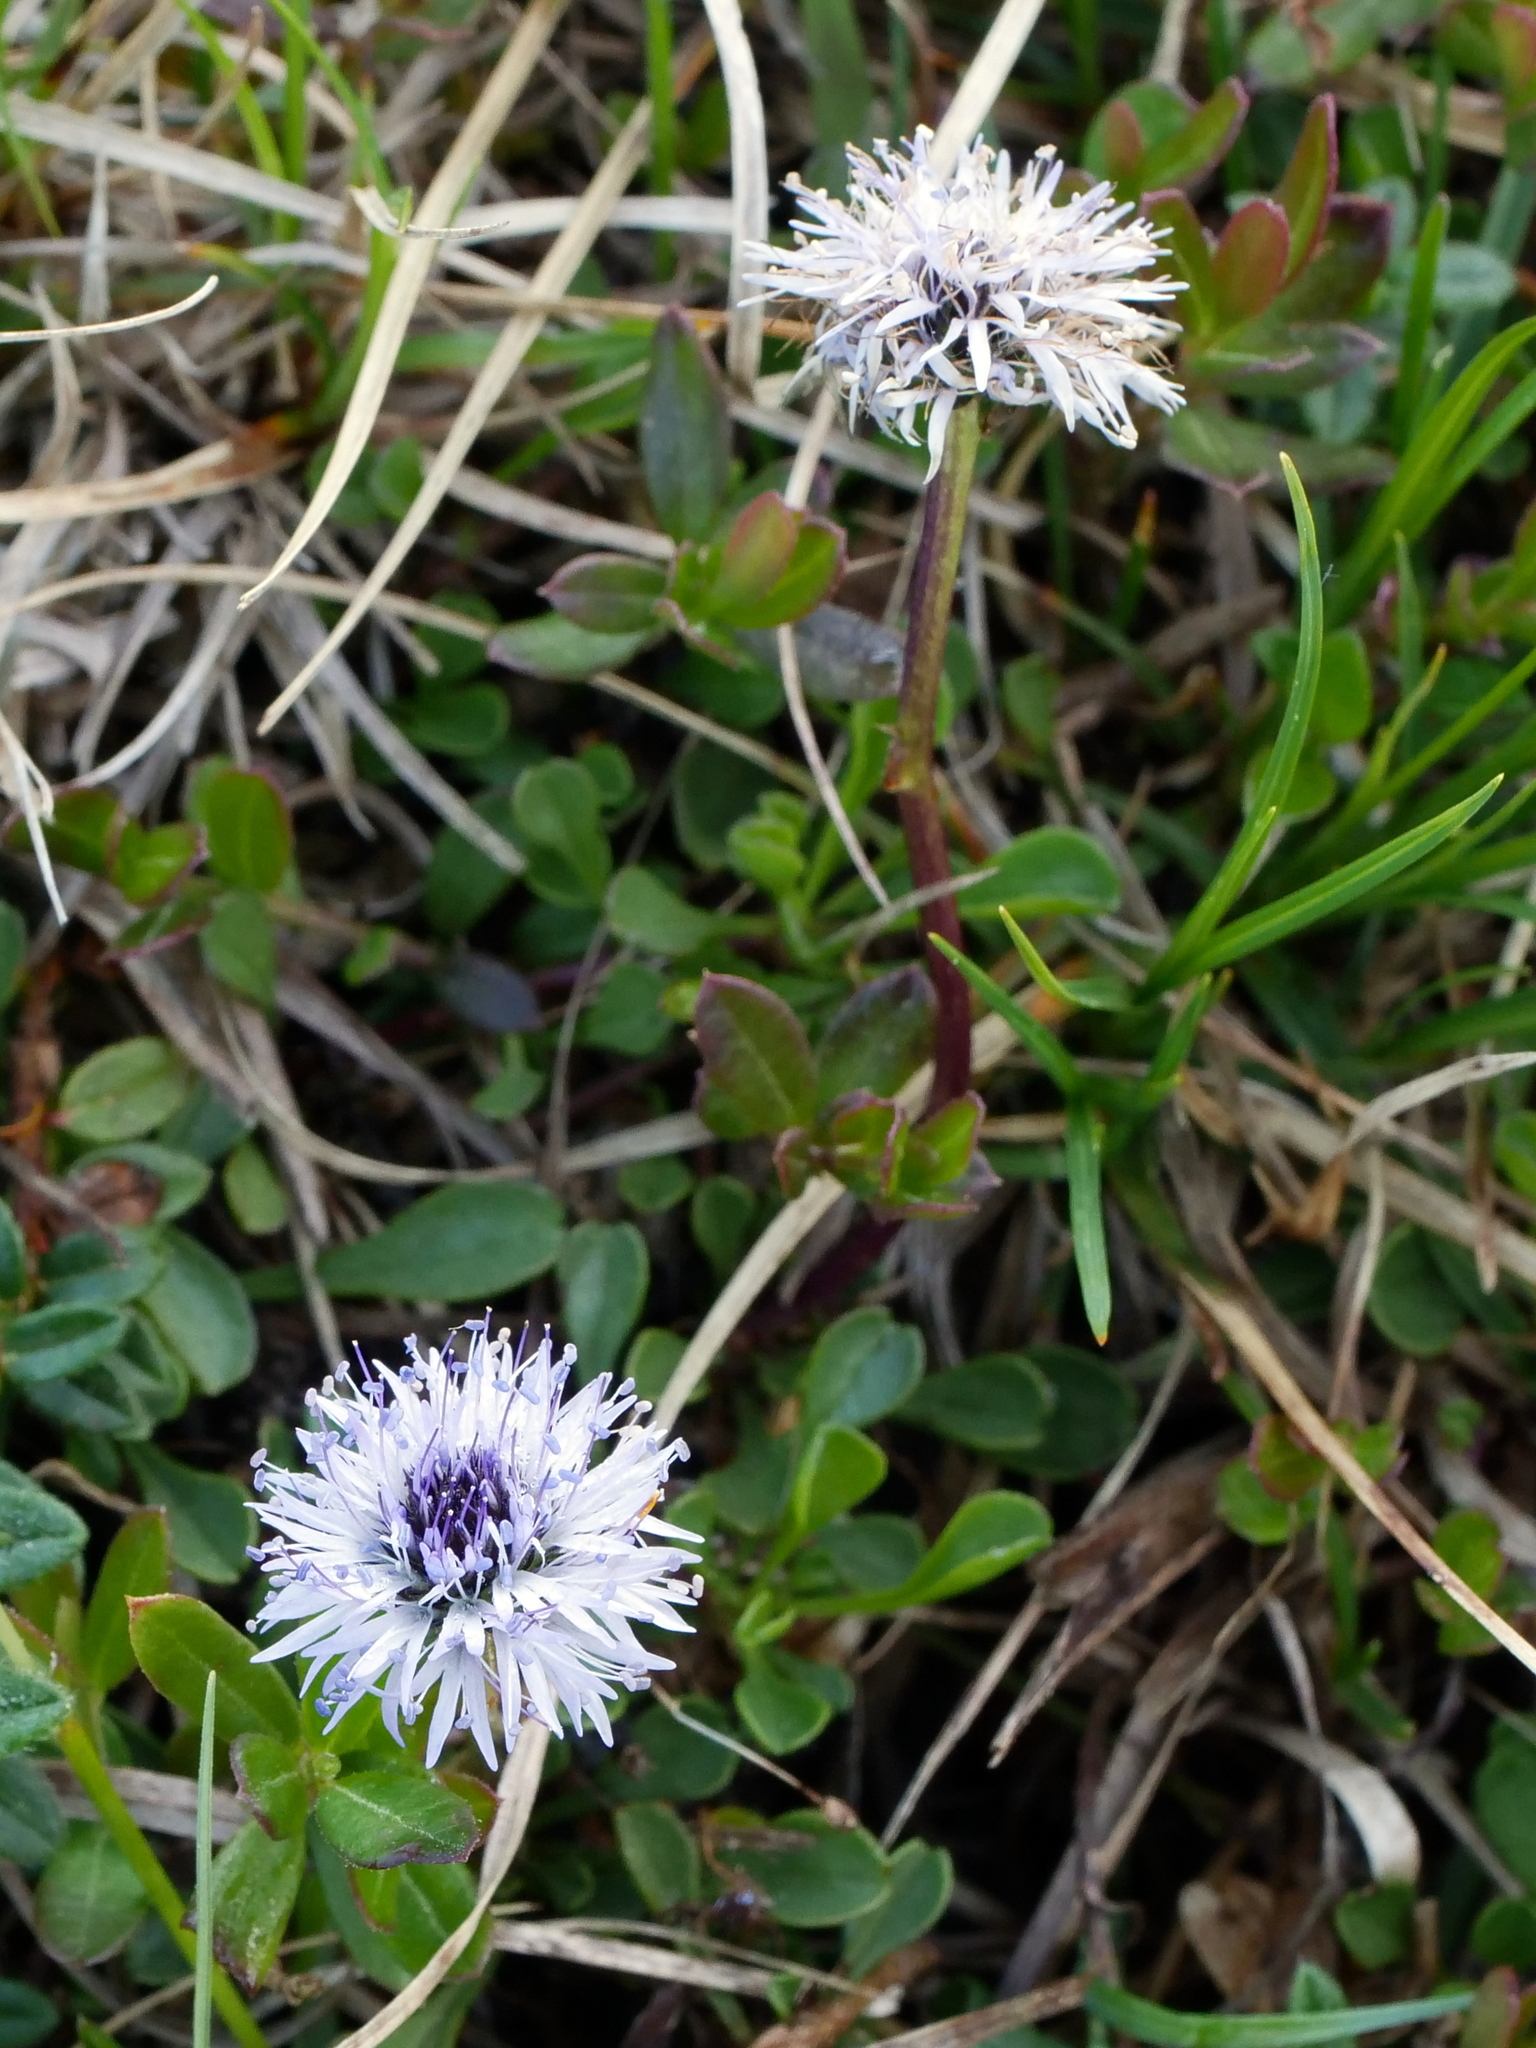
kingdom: Plantae
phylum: Tracheophyta
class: Magnoliopsida
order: Lamiales
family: Plantaginaceae
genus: Globularia
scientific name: Globularia cordifolia
